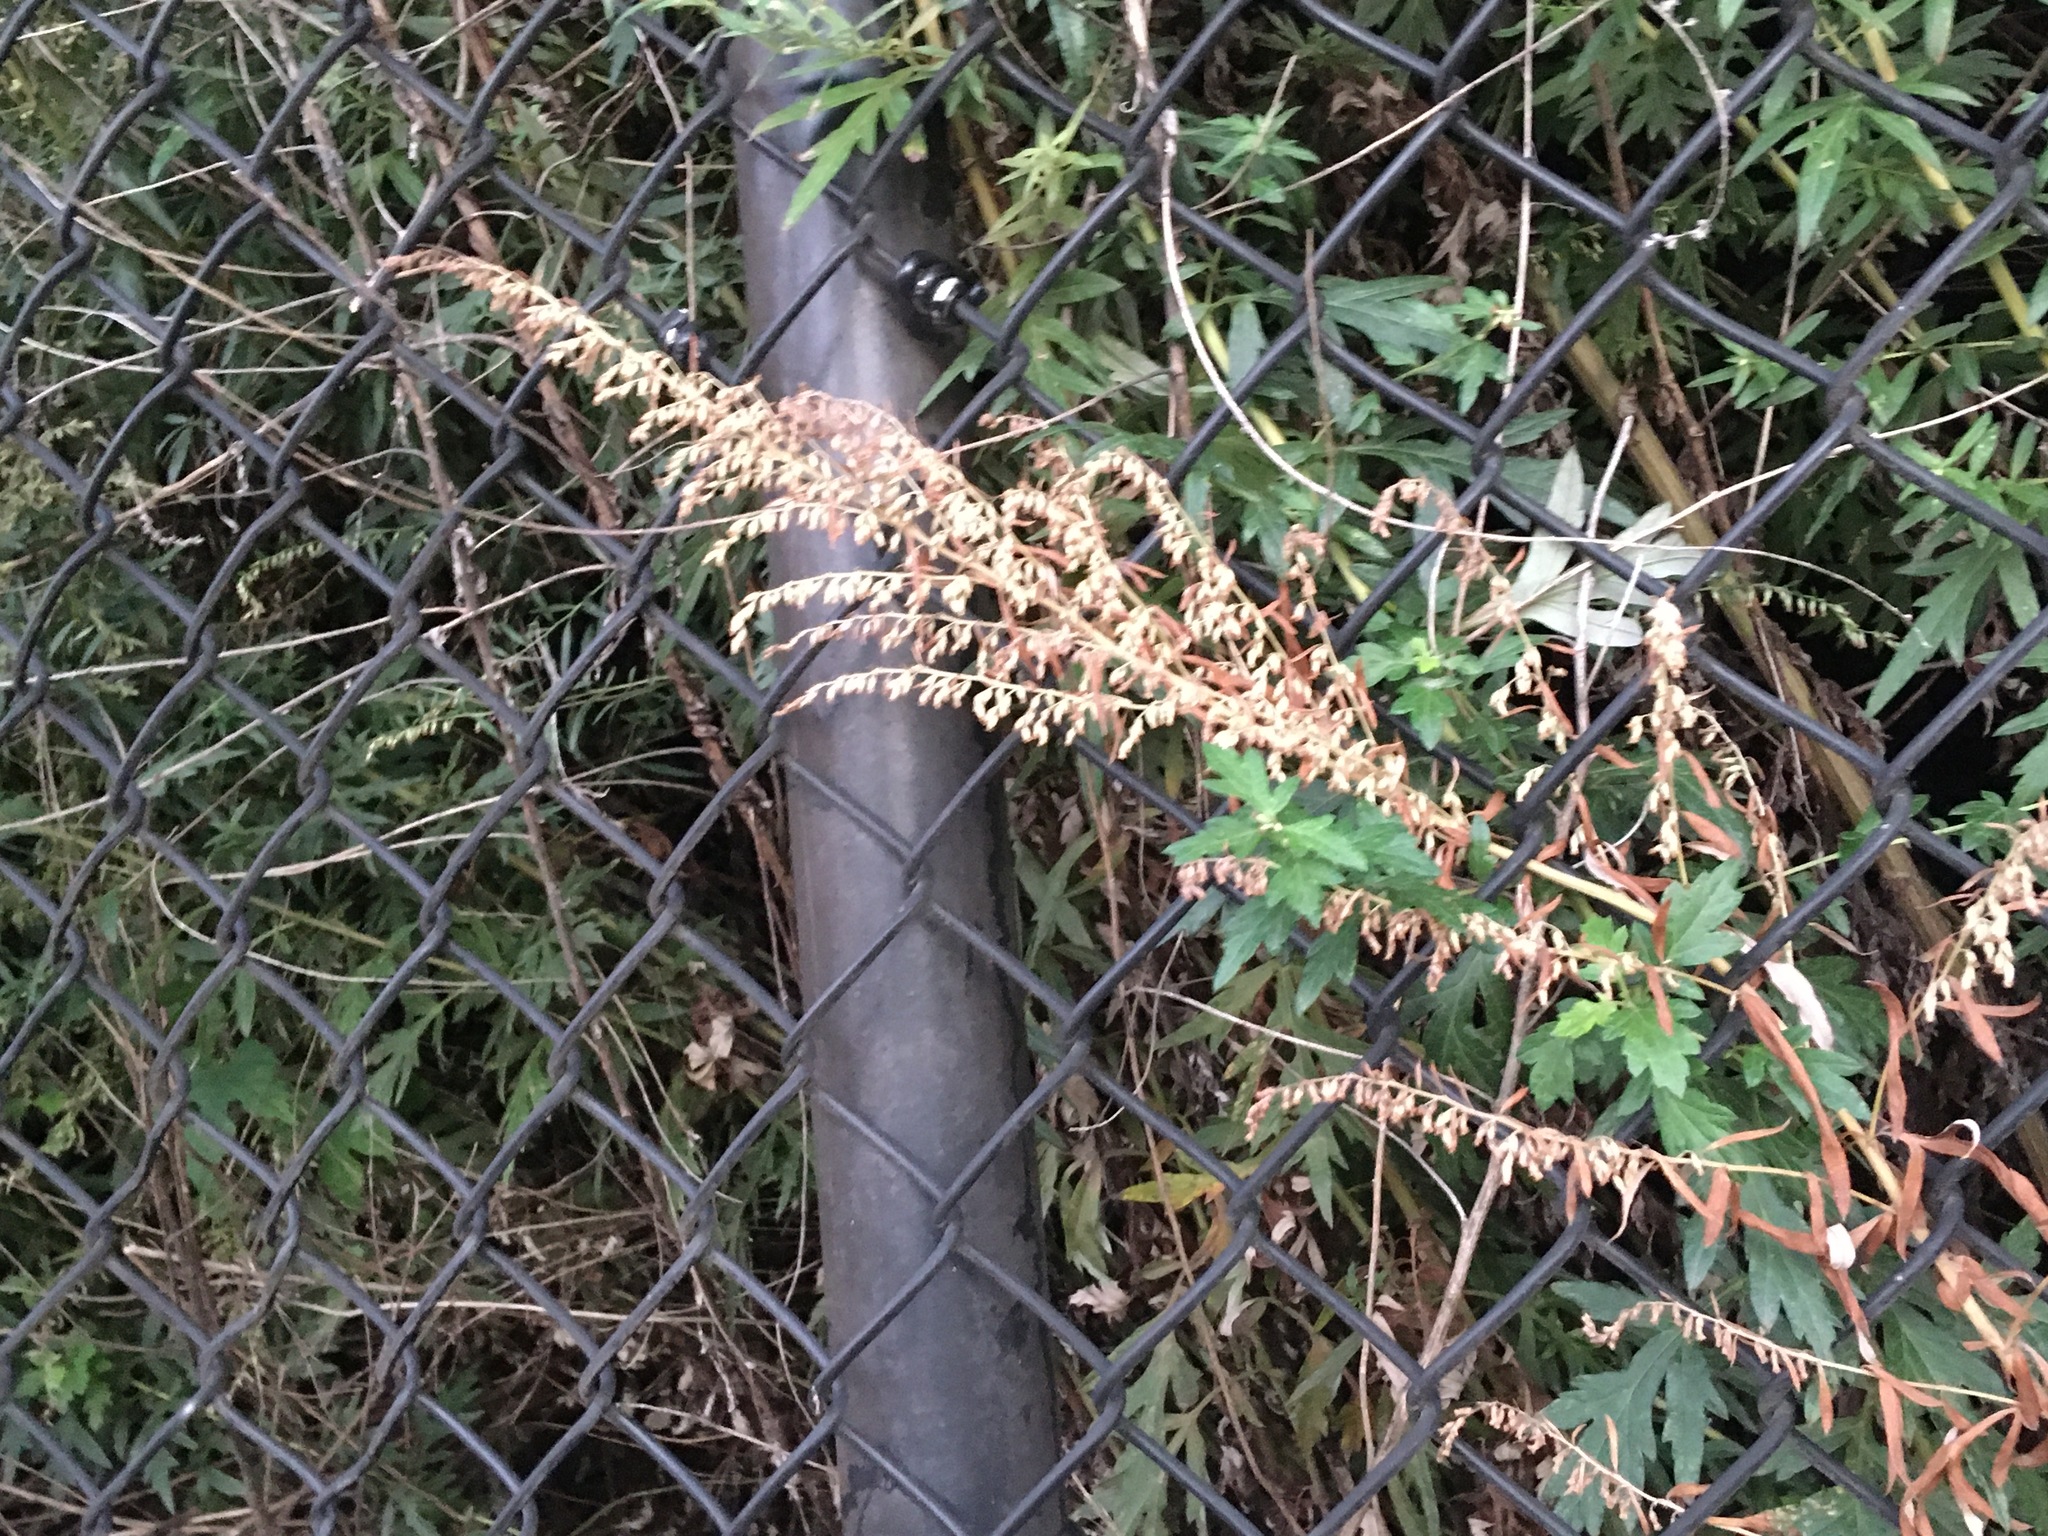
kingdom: Plantae
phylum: Tracheophyta
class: Magnoliopsida
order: Asterales
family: Asteraceae
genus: Artemisia
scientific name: Artemisia vulgaris
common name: Mugwort
